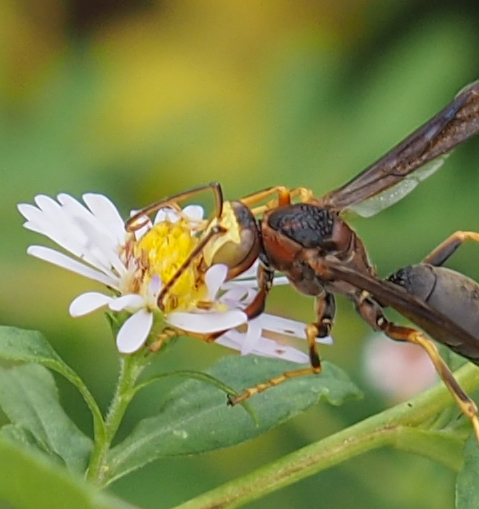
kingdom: Animalia
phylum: Arthropoda
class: Insecta
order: Hymenoptera
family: Eumenidae
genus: Polistes
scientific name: Polistes metricus
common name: Metric paper wasp
